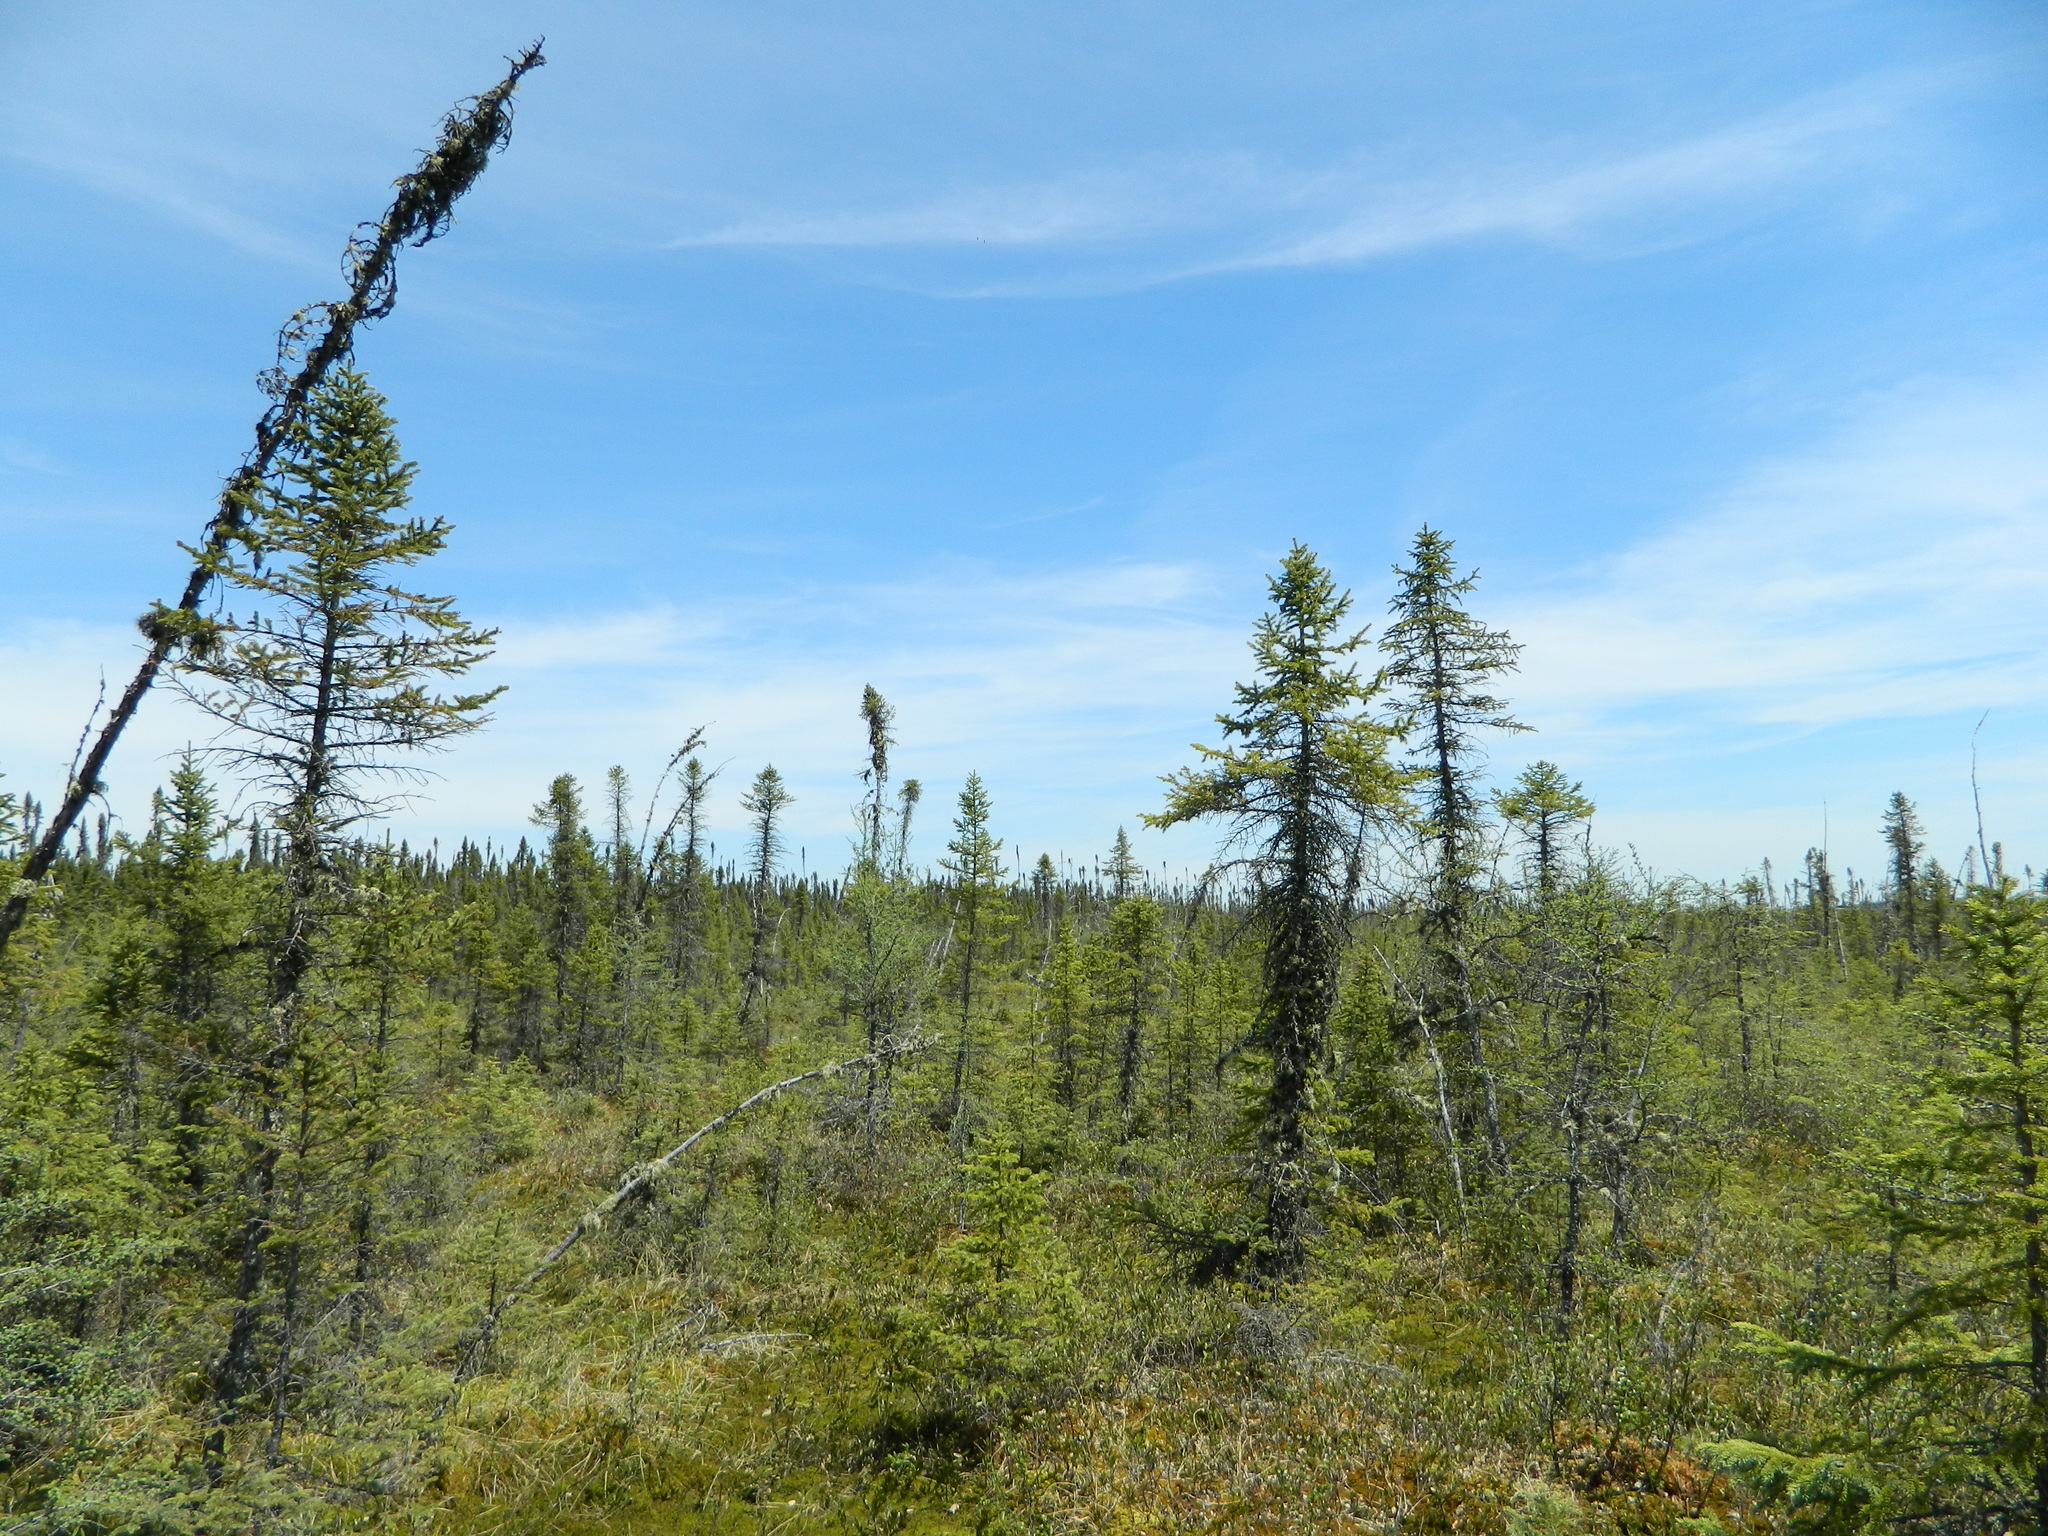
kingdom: Plantae
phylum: Tracheophyta
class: Pinopsida
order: Pinales
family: Pinaceae
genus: Picea
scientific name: Picea mariana
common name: Black spruce
